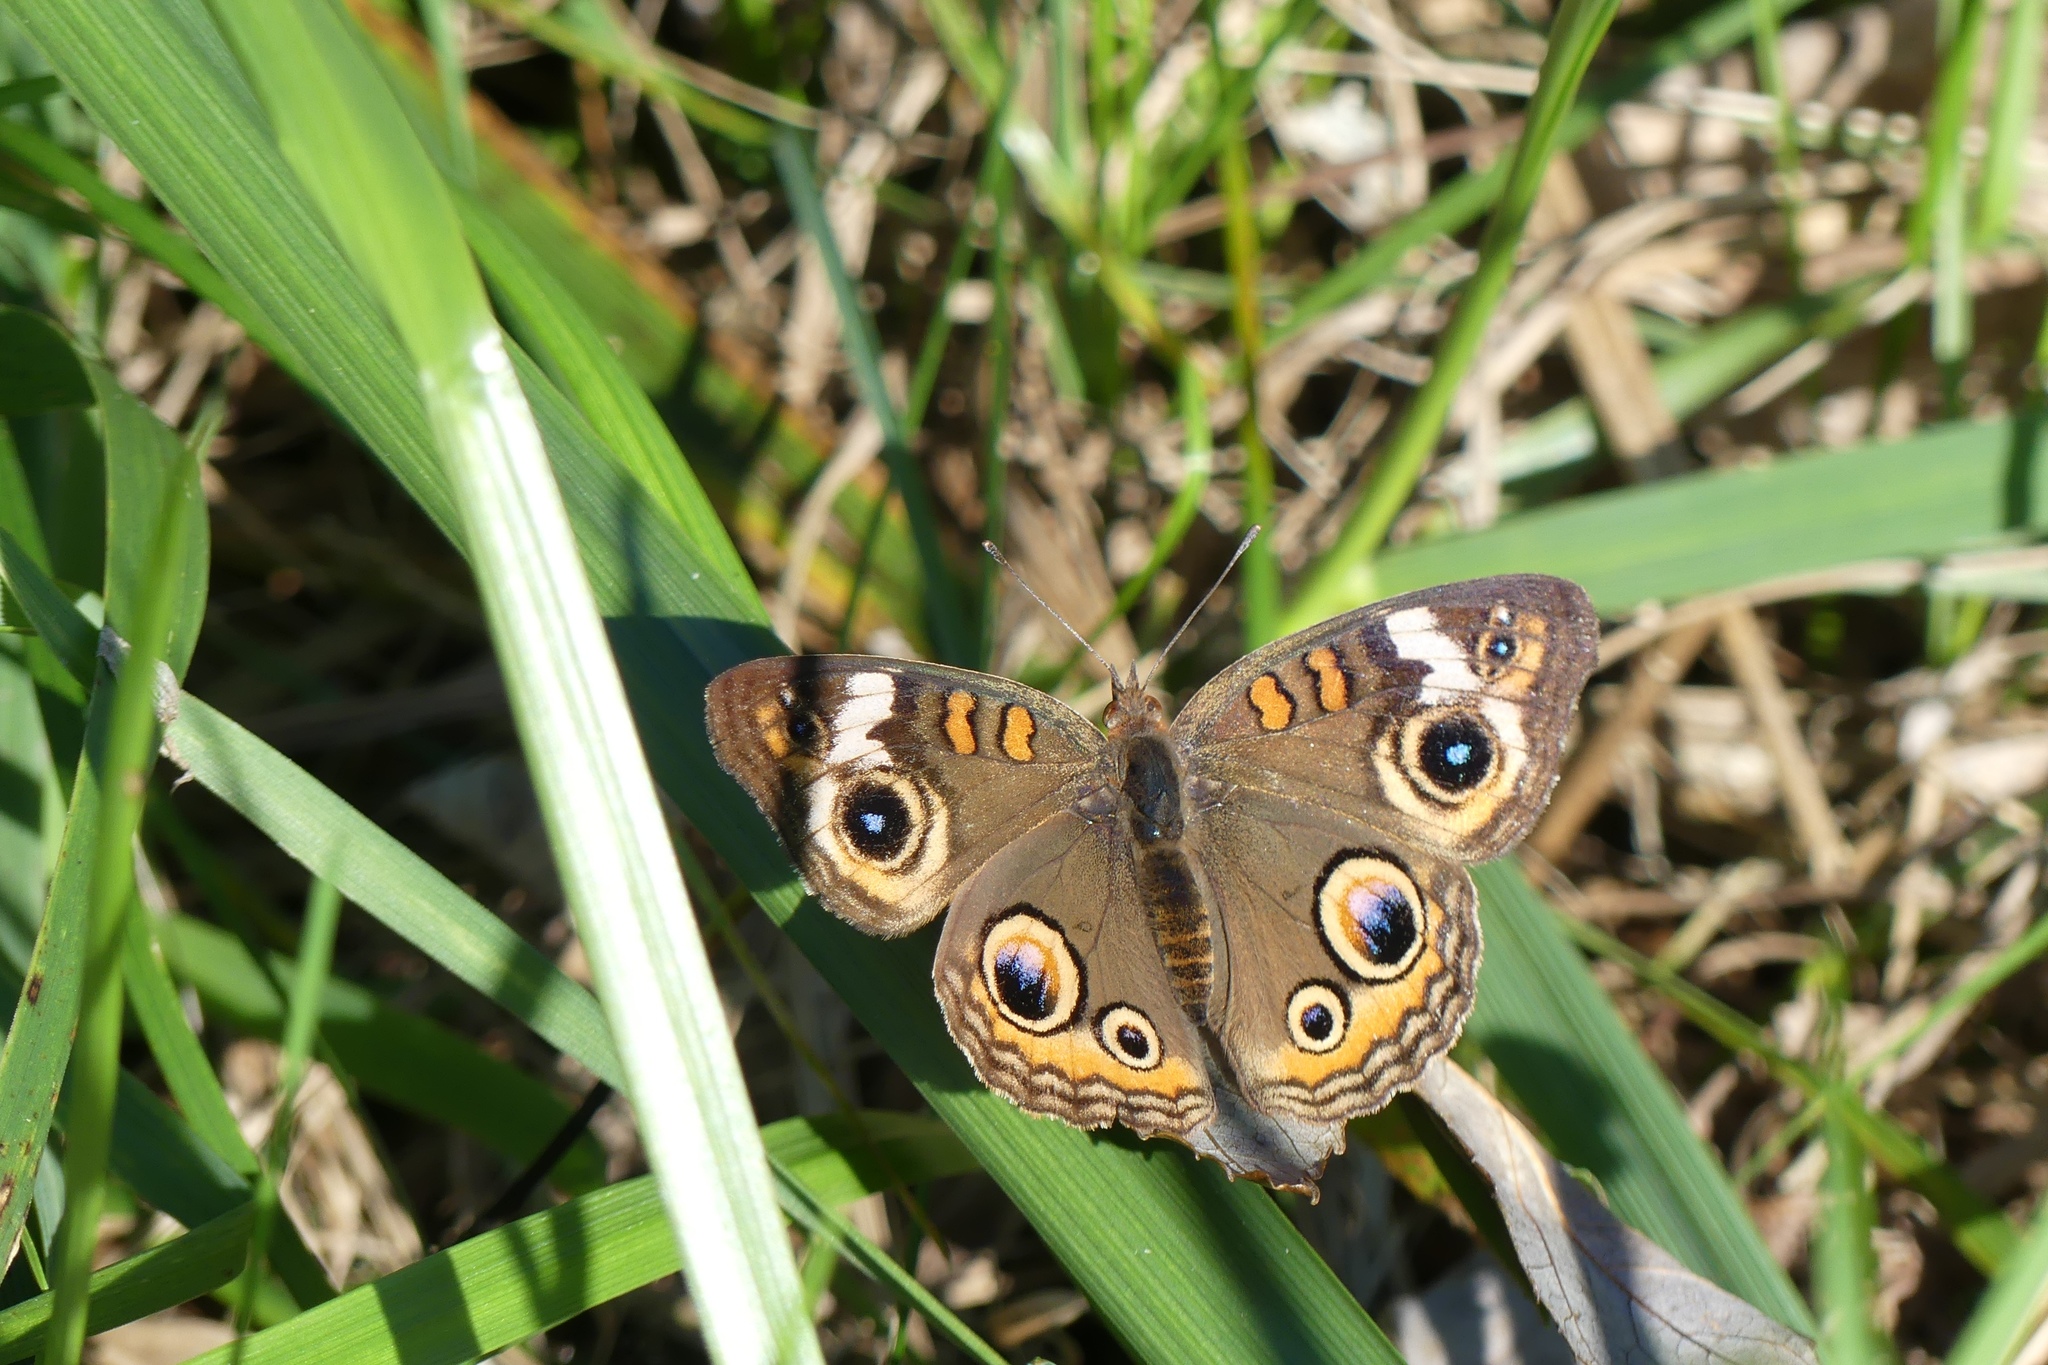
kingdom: Animalia
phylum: Arthropoda
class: Insecta
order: Lepidoptera
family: Nymphalidae
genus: Junonia
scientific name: Junonia coenia
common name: Common buckeye
